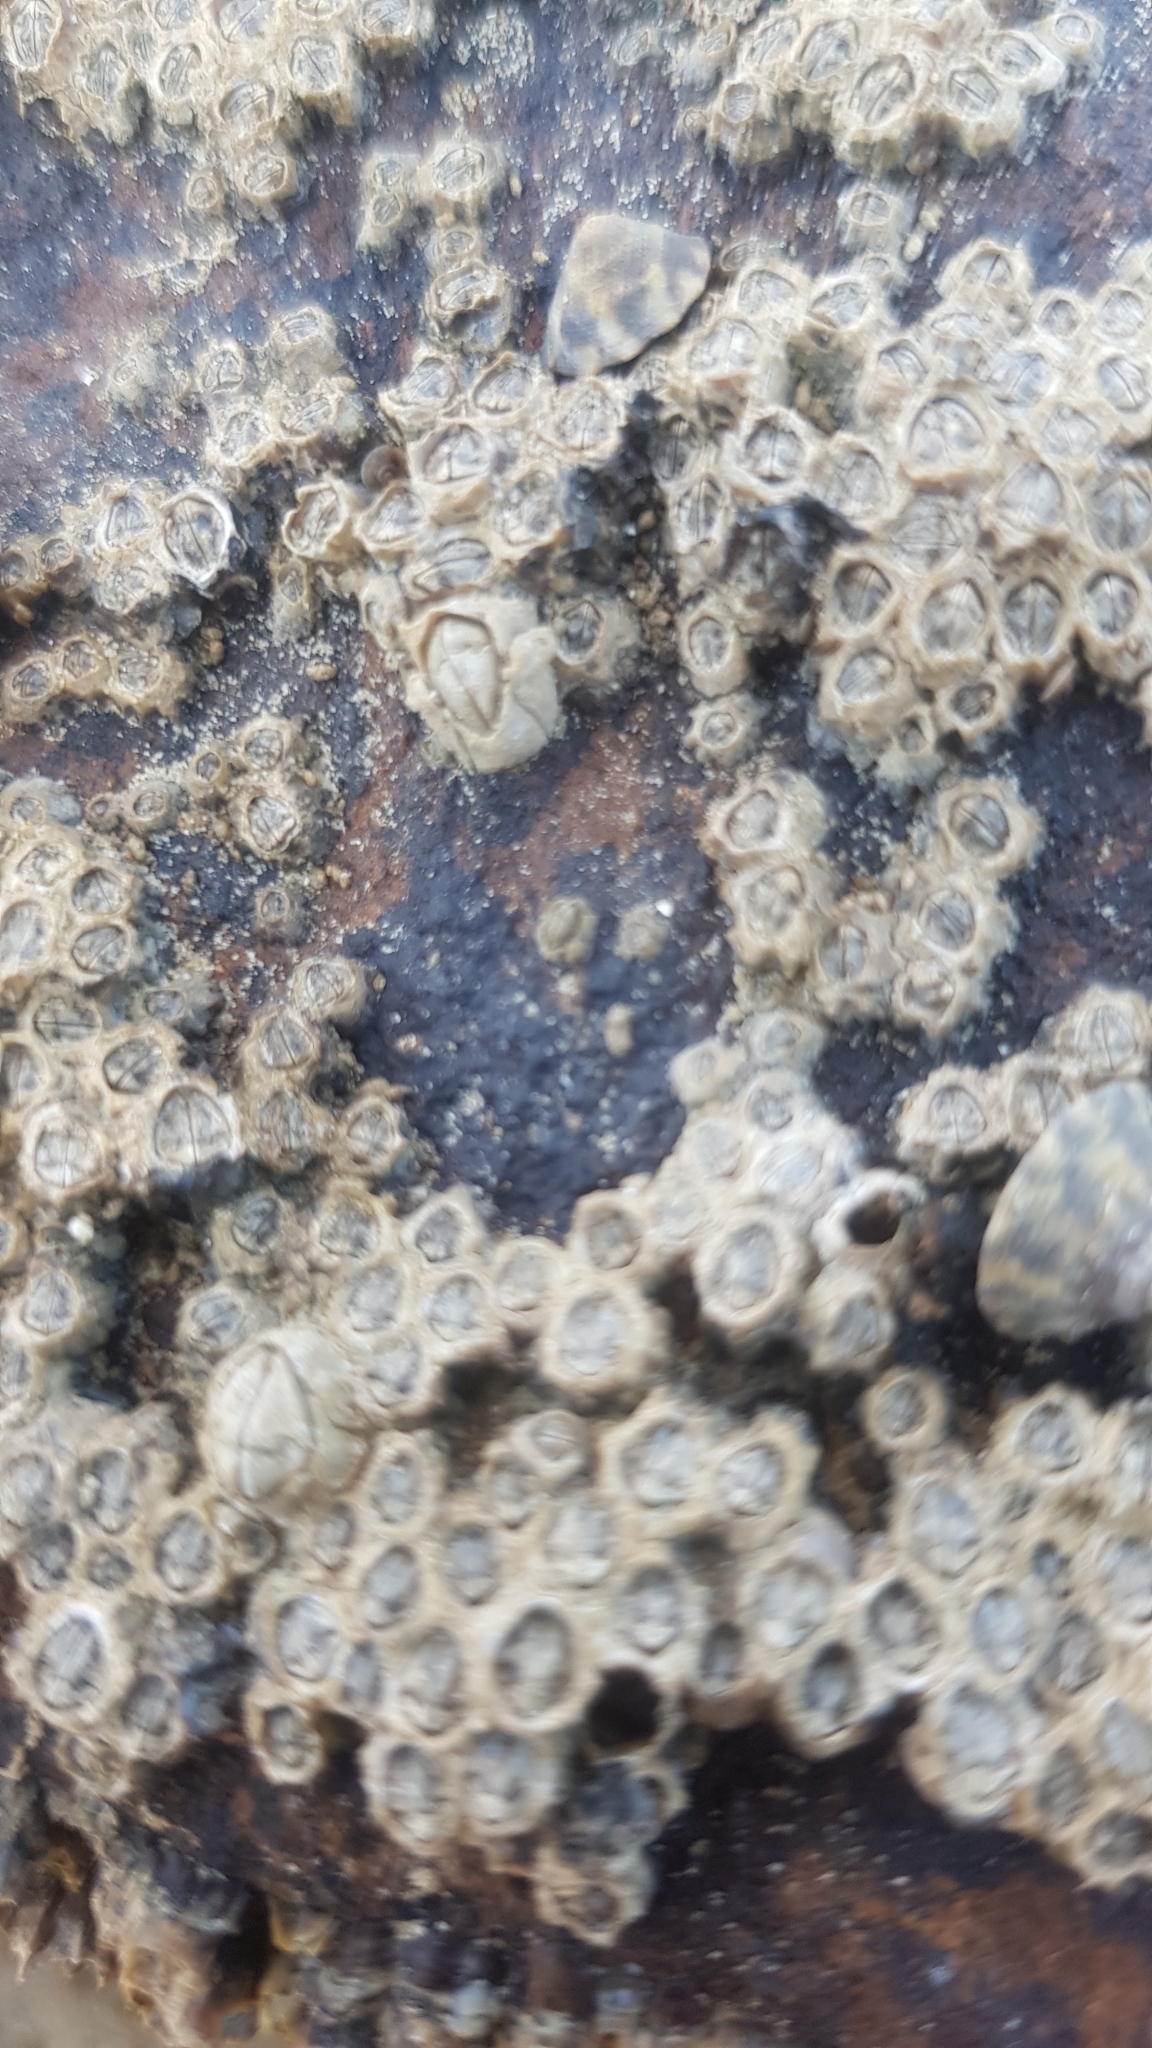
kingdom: Animalia
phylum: Arthropoda
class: Maxillopoda
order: Sessilia
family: Chthamalidae
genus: Chamaesipho
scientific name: Chamaesipho tasmanica
